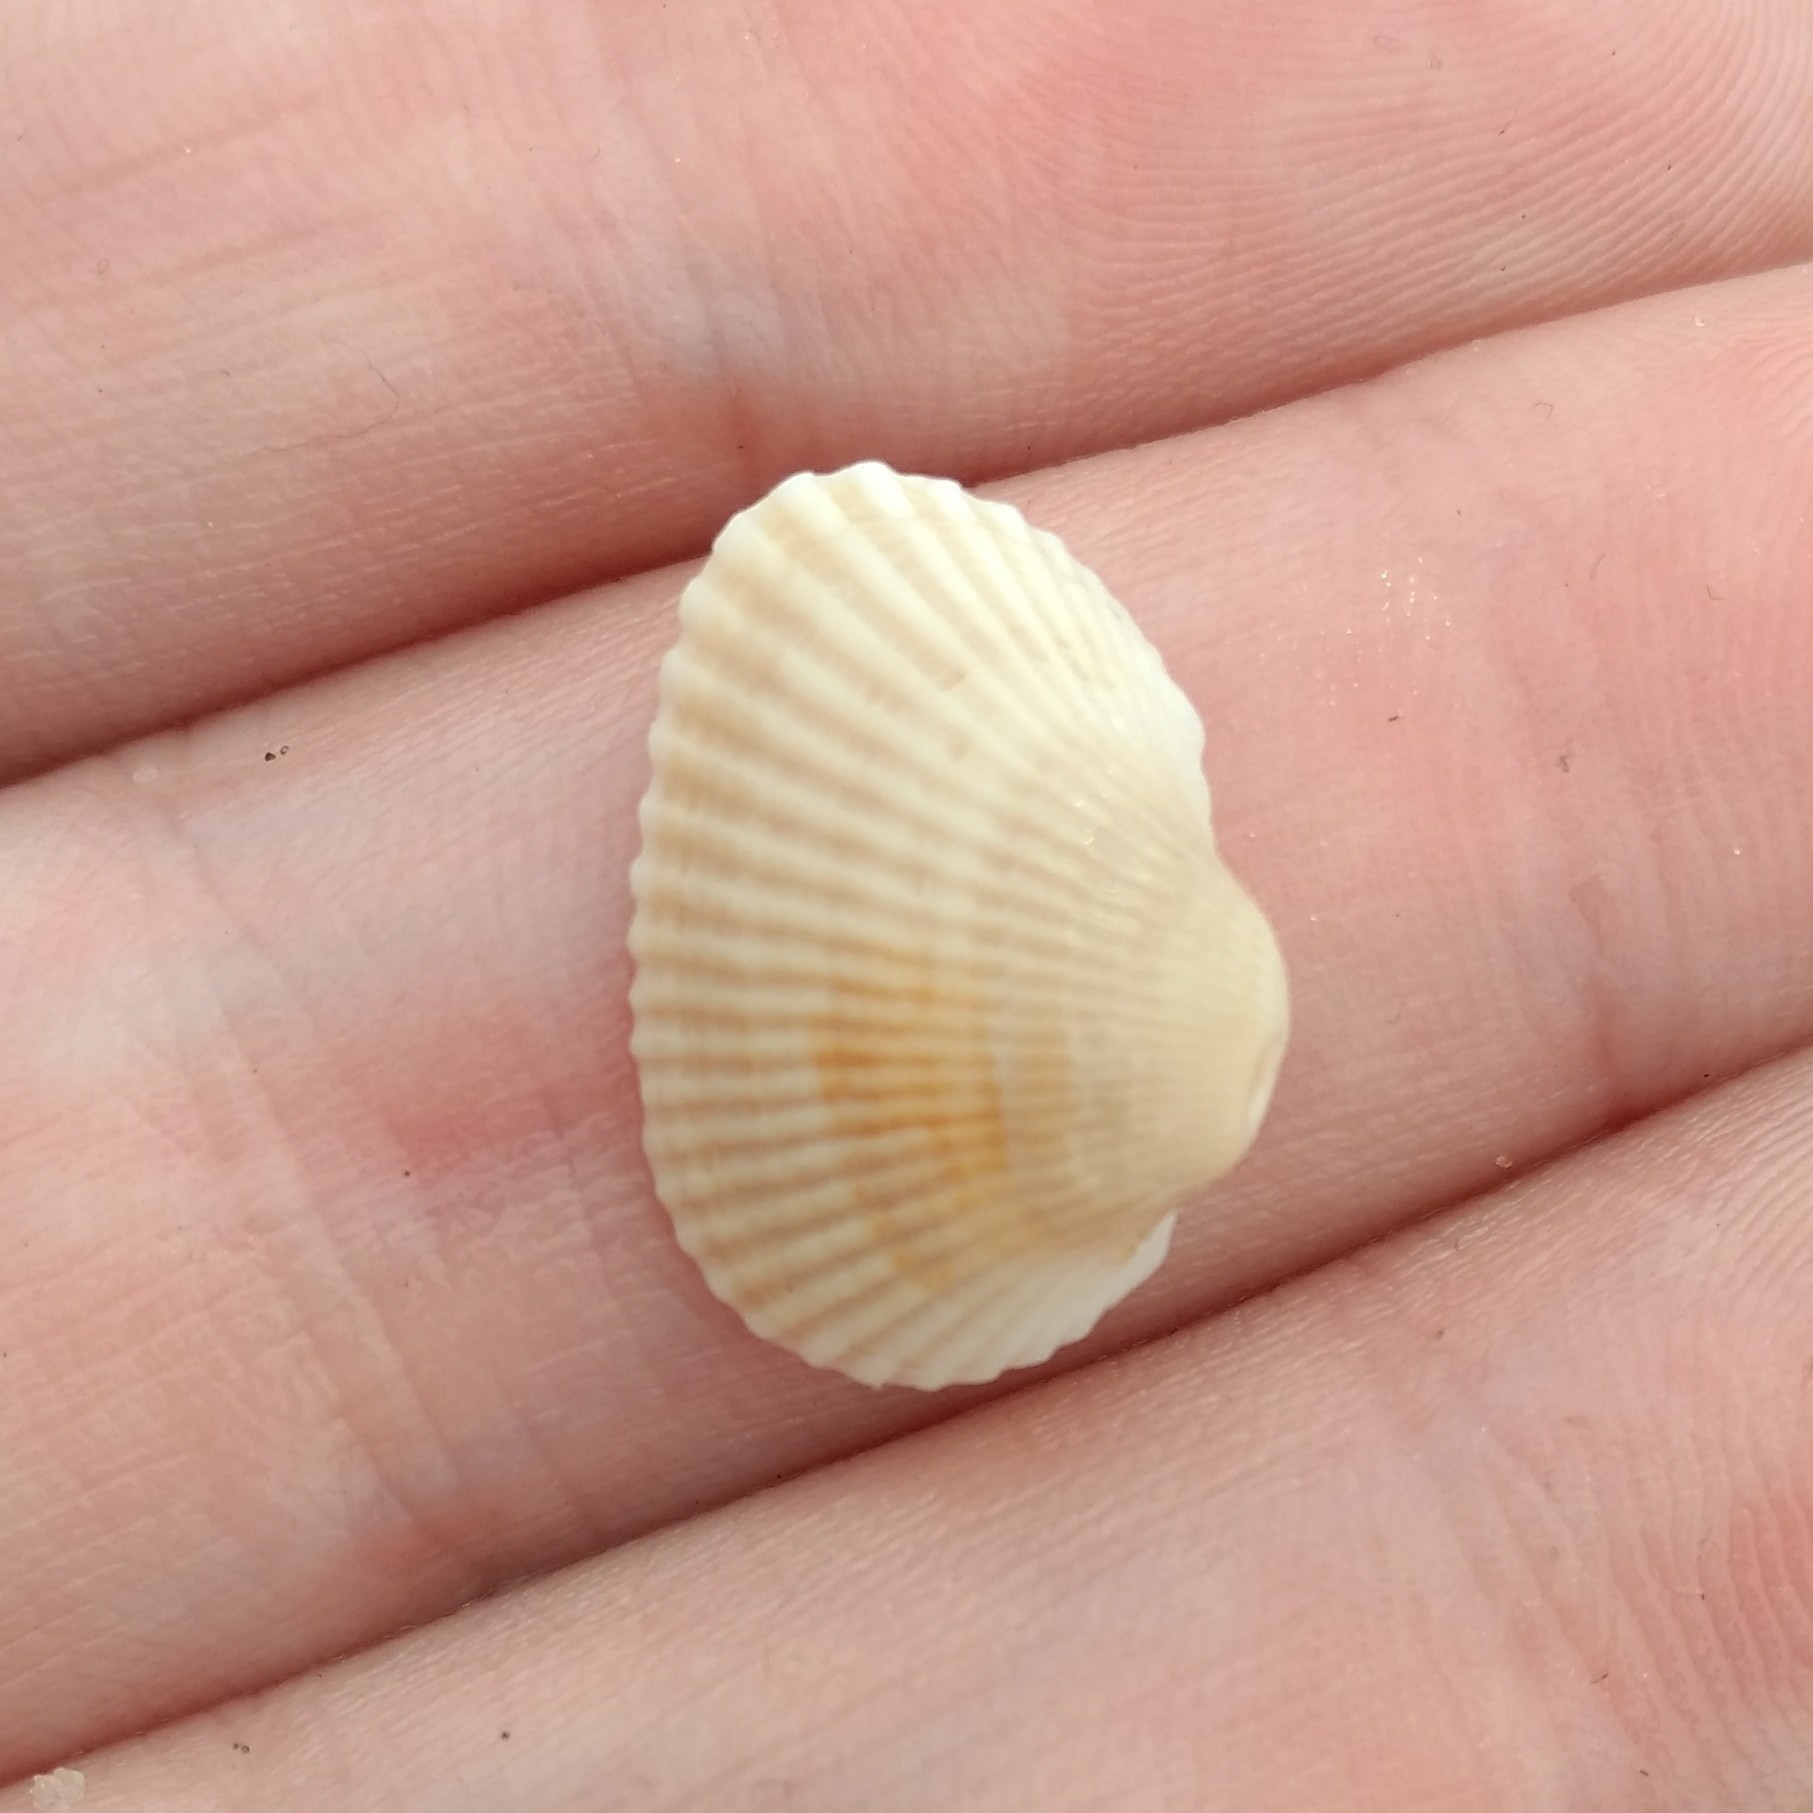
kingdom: Animalia
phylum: Mollusca
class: Bivalvia
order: Arcida
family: Arcidae
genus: Anadara
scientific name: Anadara transversa
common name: Transverse ark
